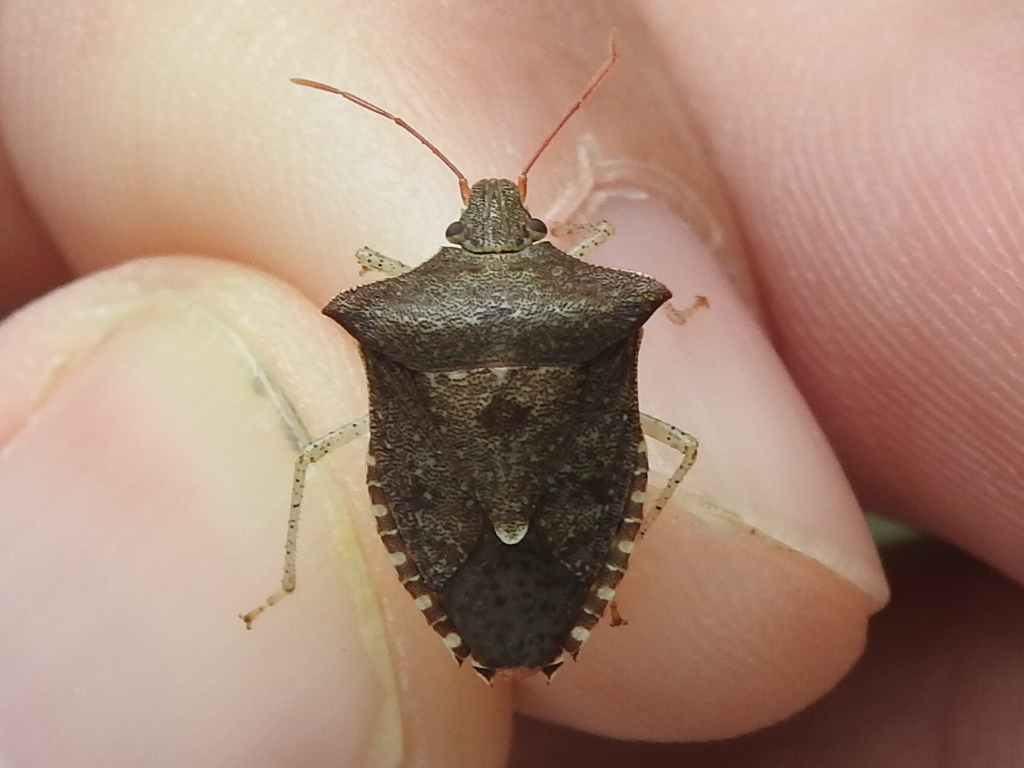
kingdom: Animalia
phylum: Arthropoda
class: Insecta
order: Hemiptera
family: Pentatomidae
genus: Euschistus
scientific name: Euschistus tristigmus
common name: Dusky stink bug
